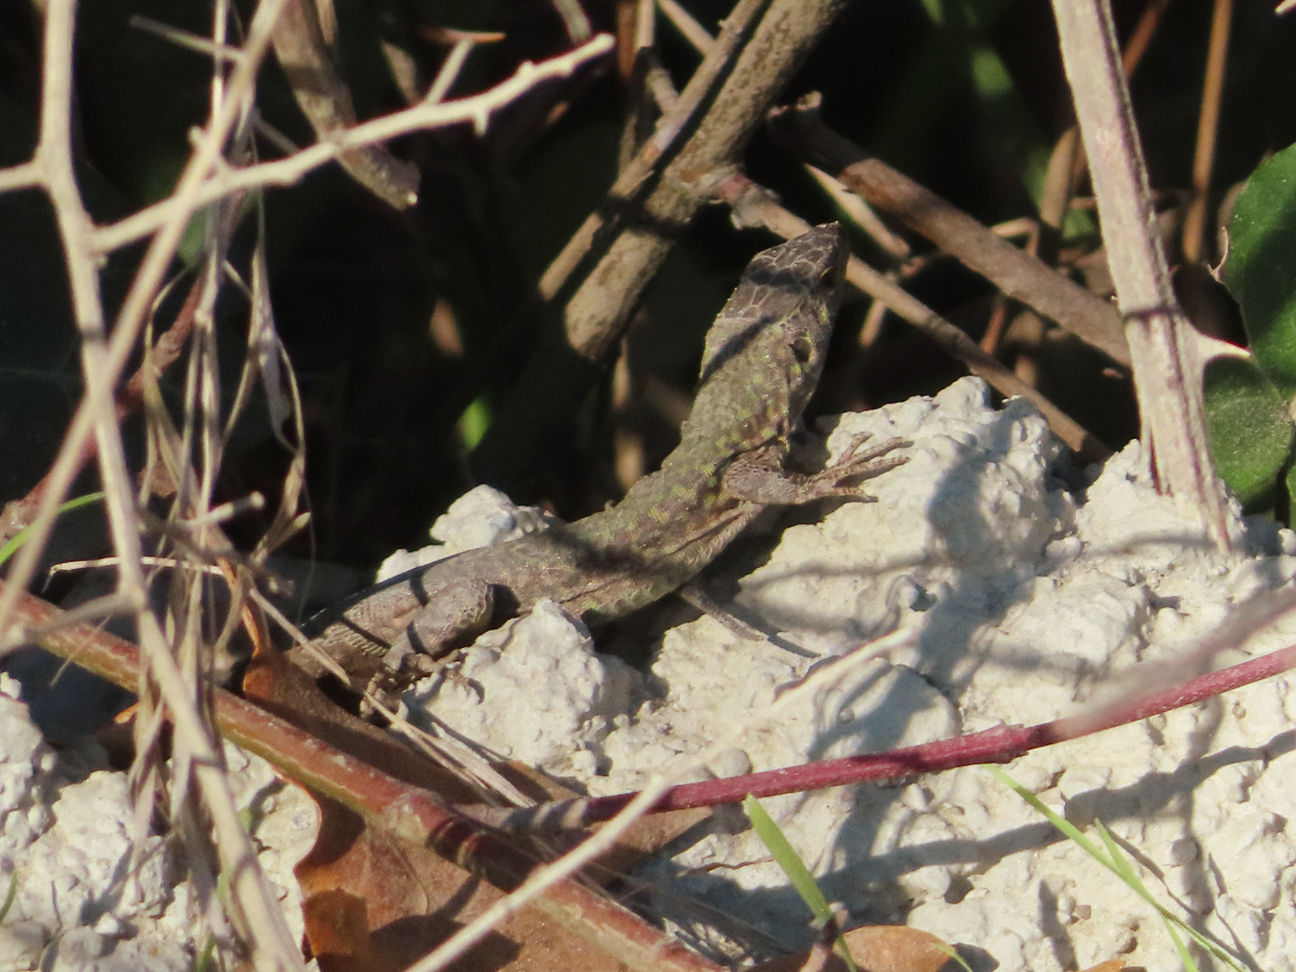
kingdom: Animalia
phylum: Chordata
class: Squamata
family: Lacertidae
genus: Podarcis
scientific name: Podarcis siculus
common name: Italian wall lizard
